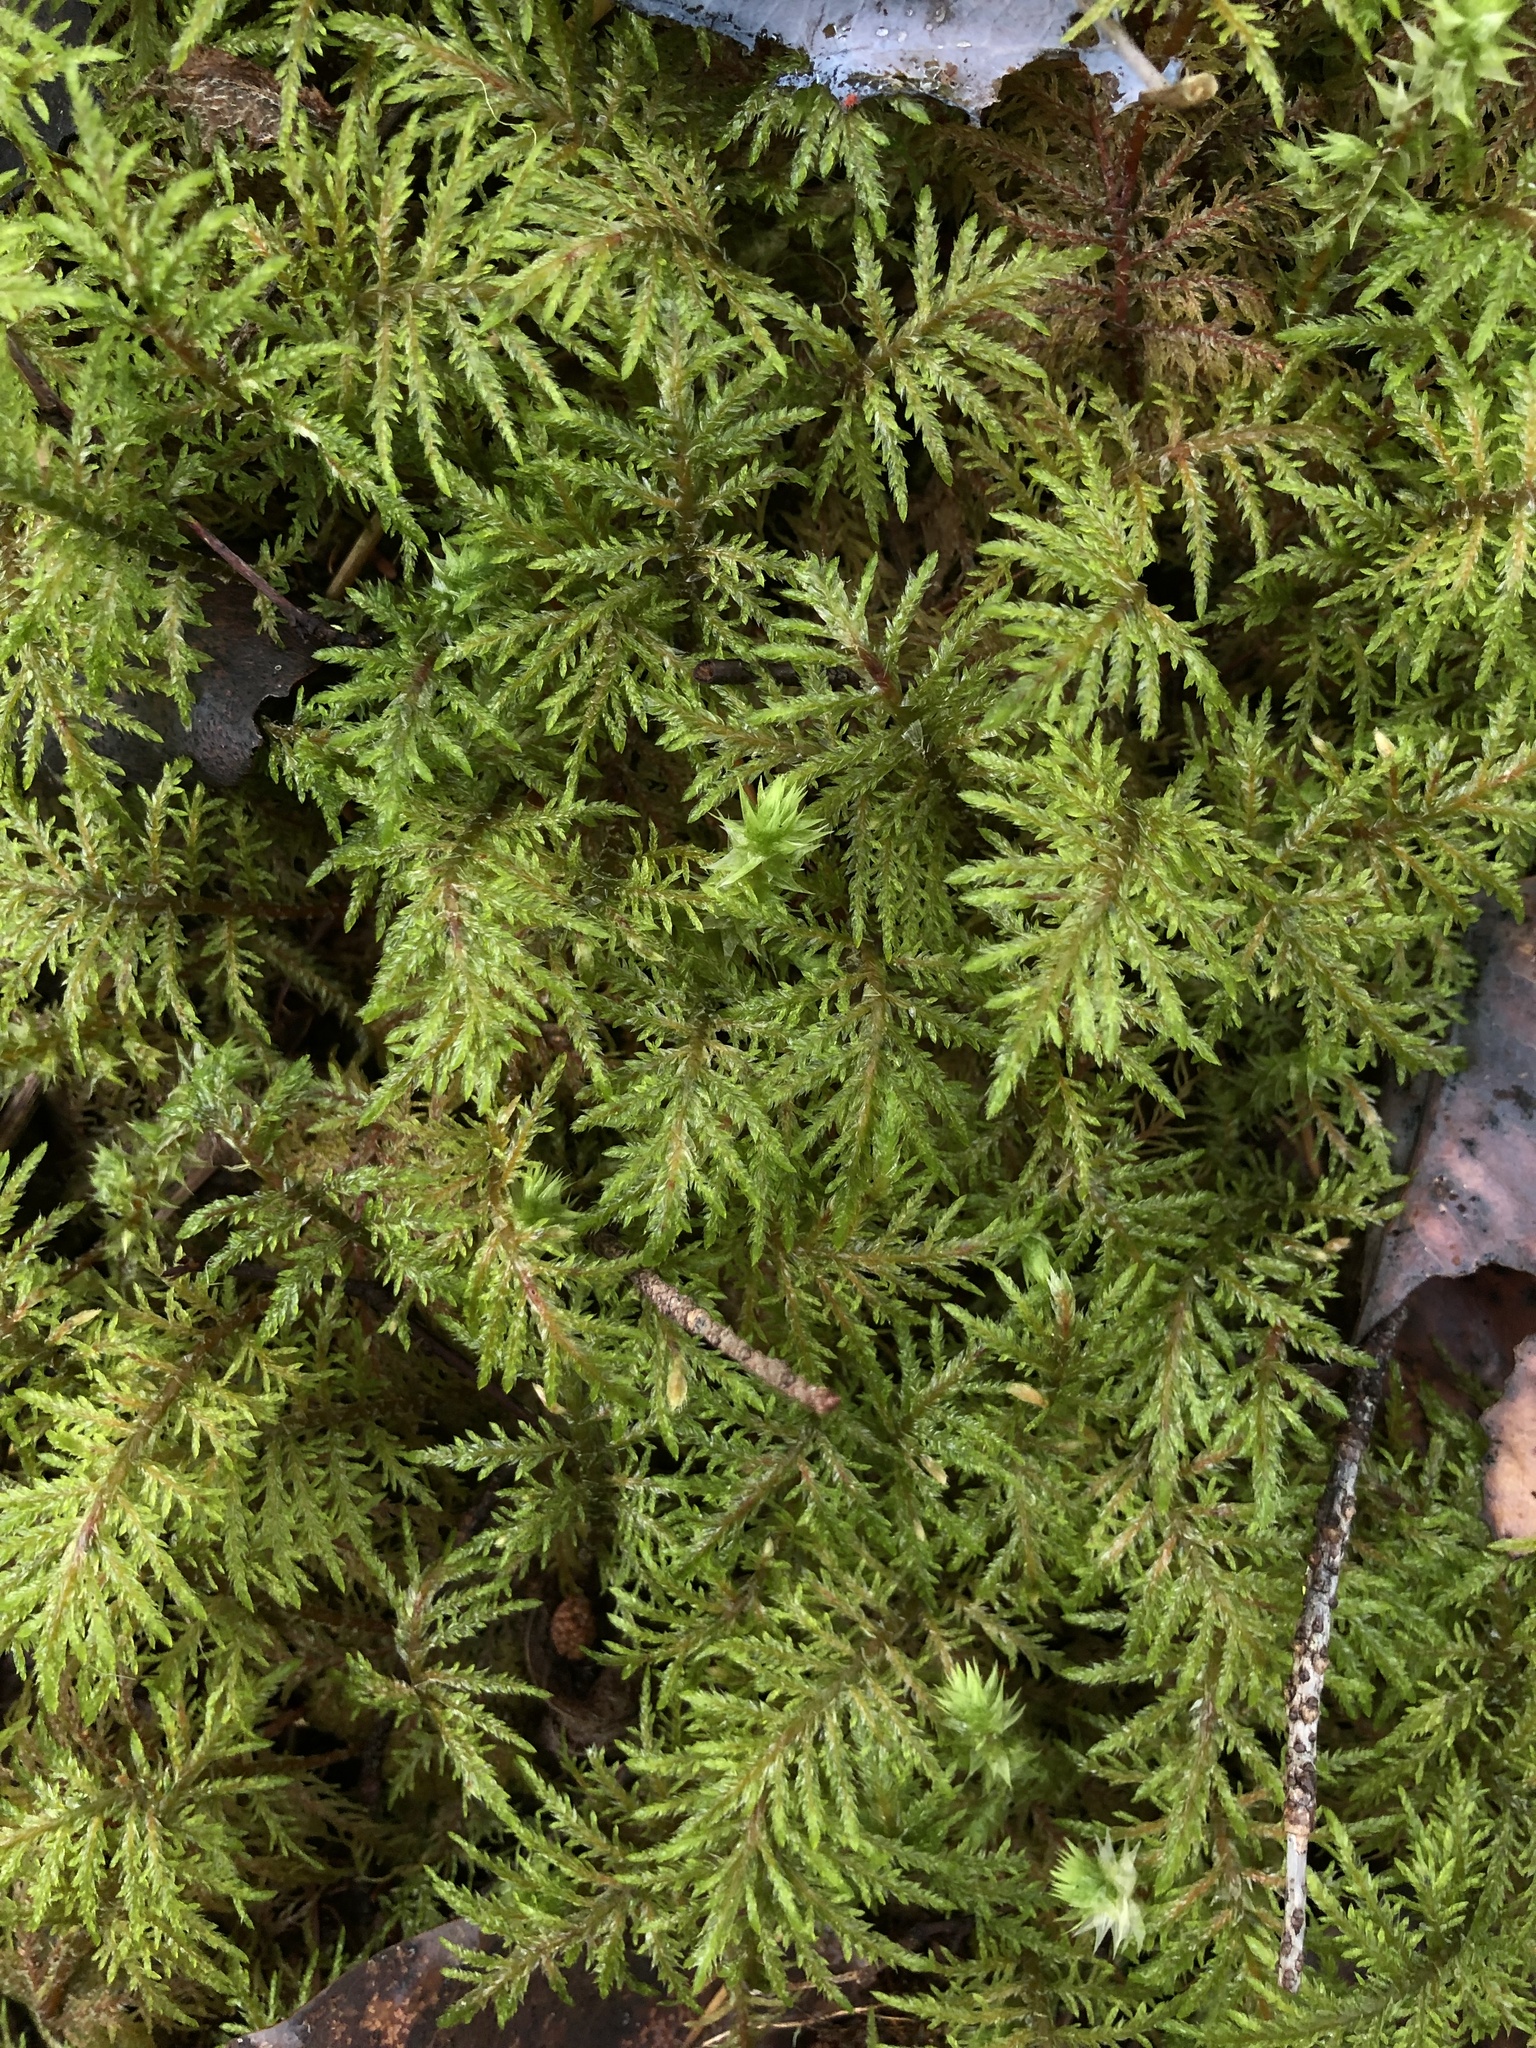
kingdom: Plantae
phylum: Bryophyta
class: Bryopsida
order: Hypnales
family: Hylocomiaceae
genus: Hylocomium
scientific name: Hylocomium splendens
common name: Stairstep moss
